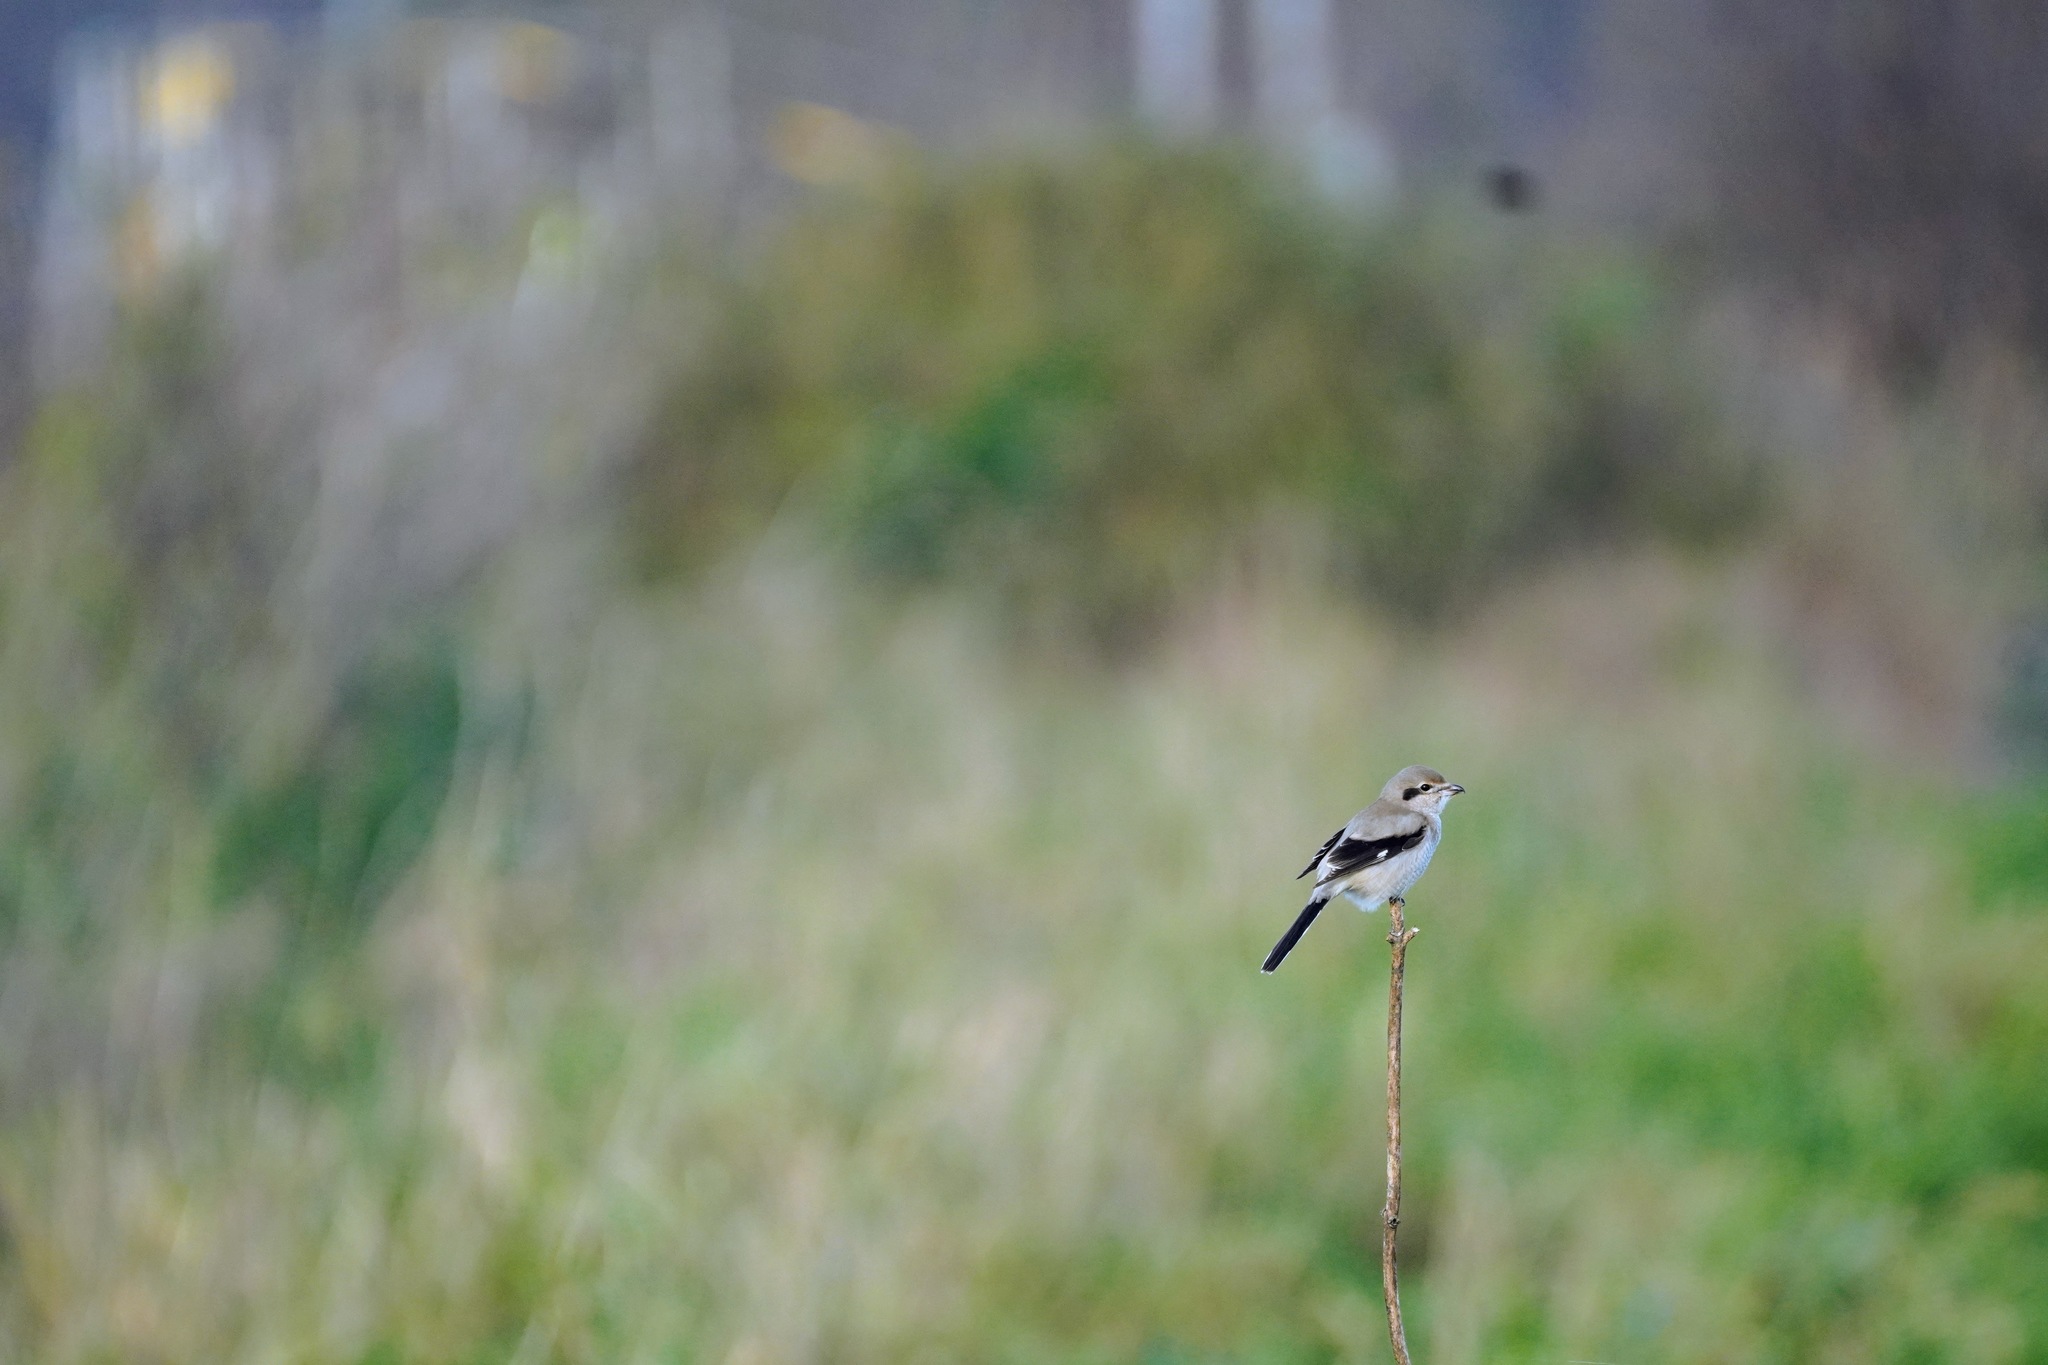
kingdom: Animalia
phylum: Chordata
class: Aves
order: Passeriformes
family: Laniidae
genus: Lanius
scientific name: Lanius borealis
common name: Northern shrike
